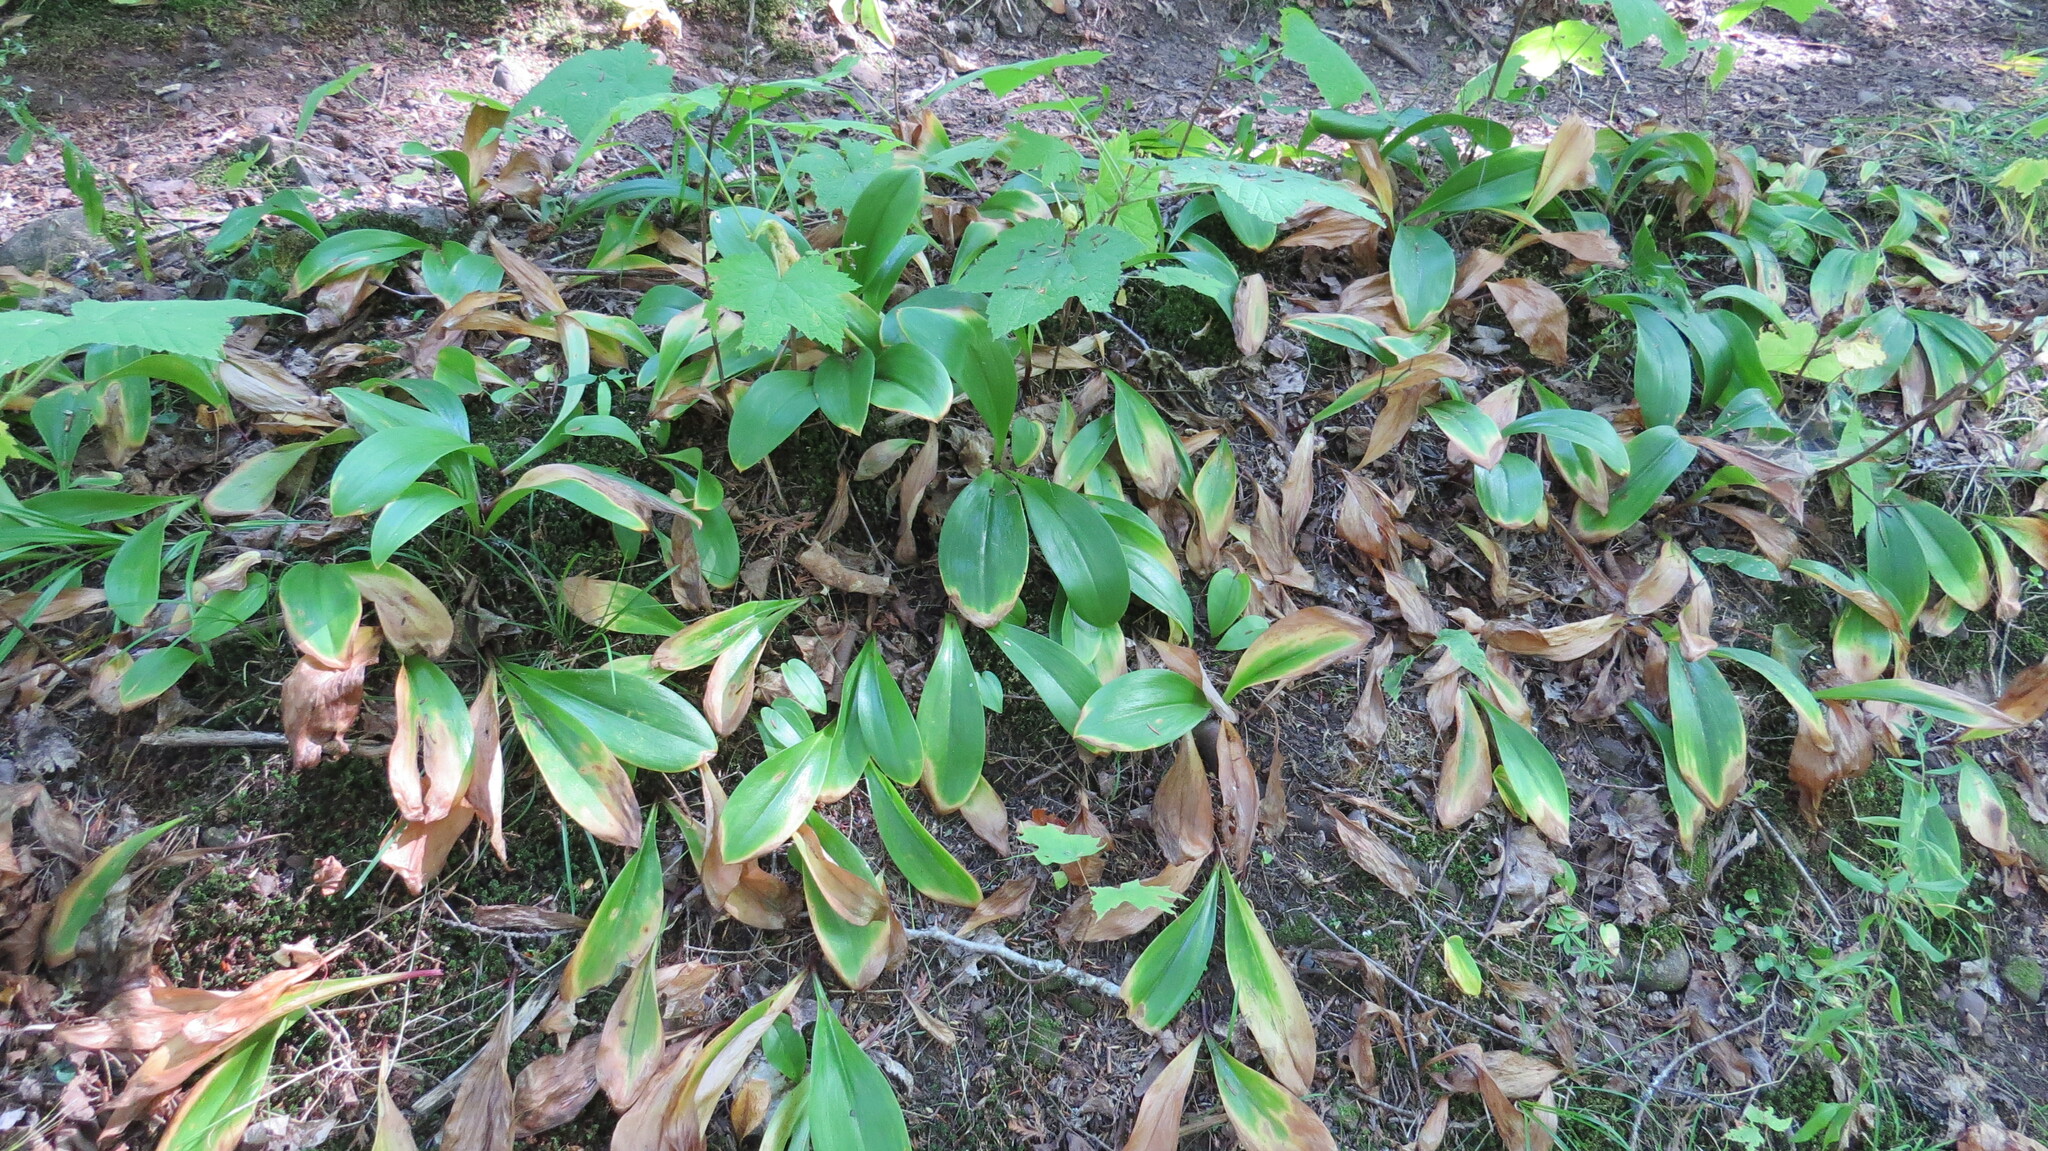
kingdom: Plantae
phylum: Tracheophyta
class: Liliopsida
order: Liliales
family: Liliaceae
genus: Clintonia
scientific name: Clintonia borealis
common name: Yellow clintonia
